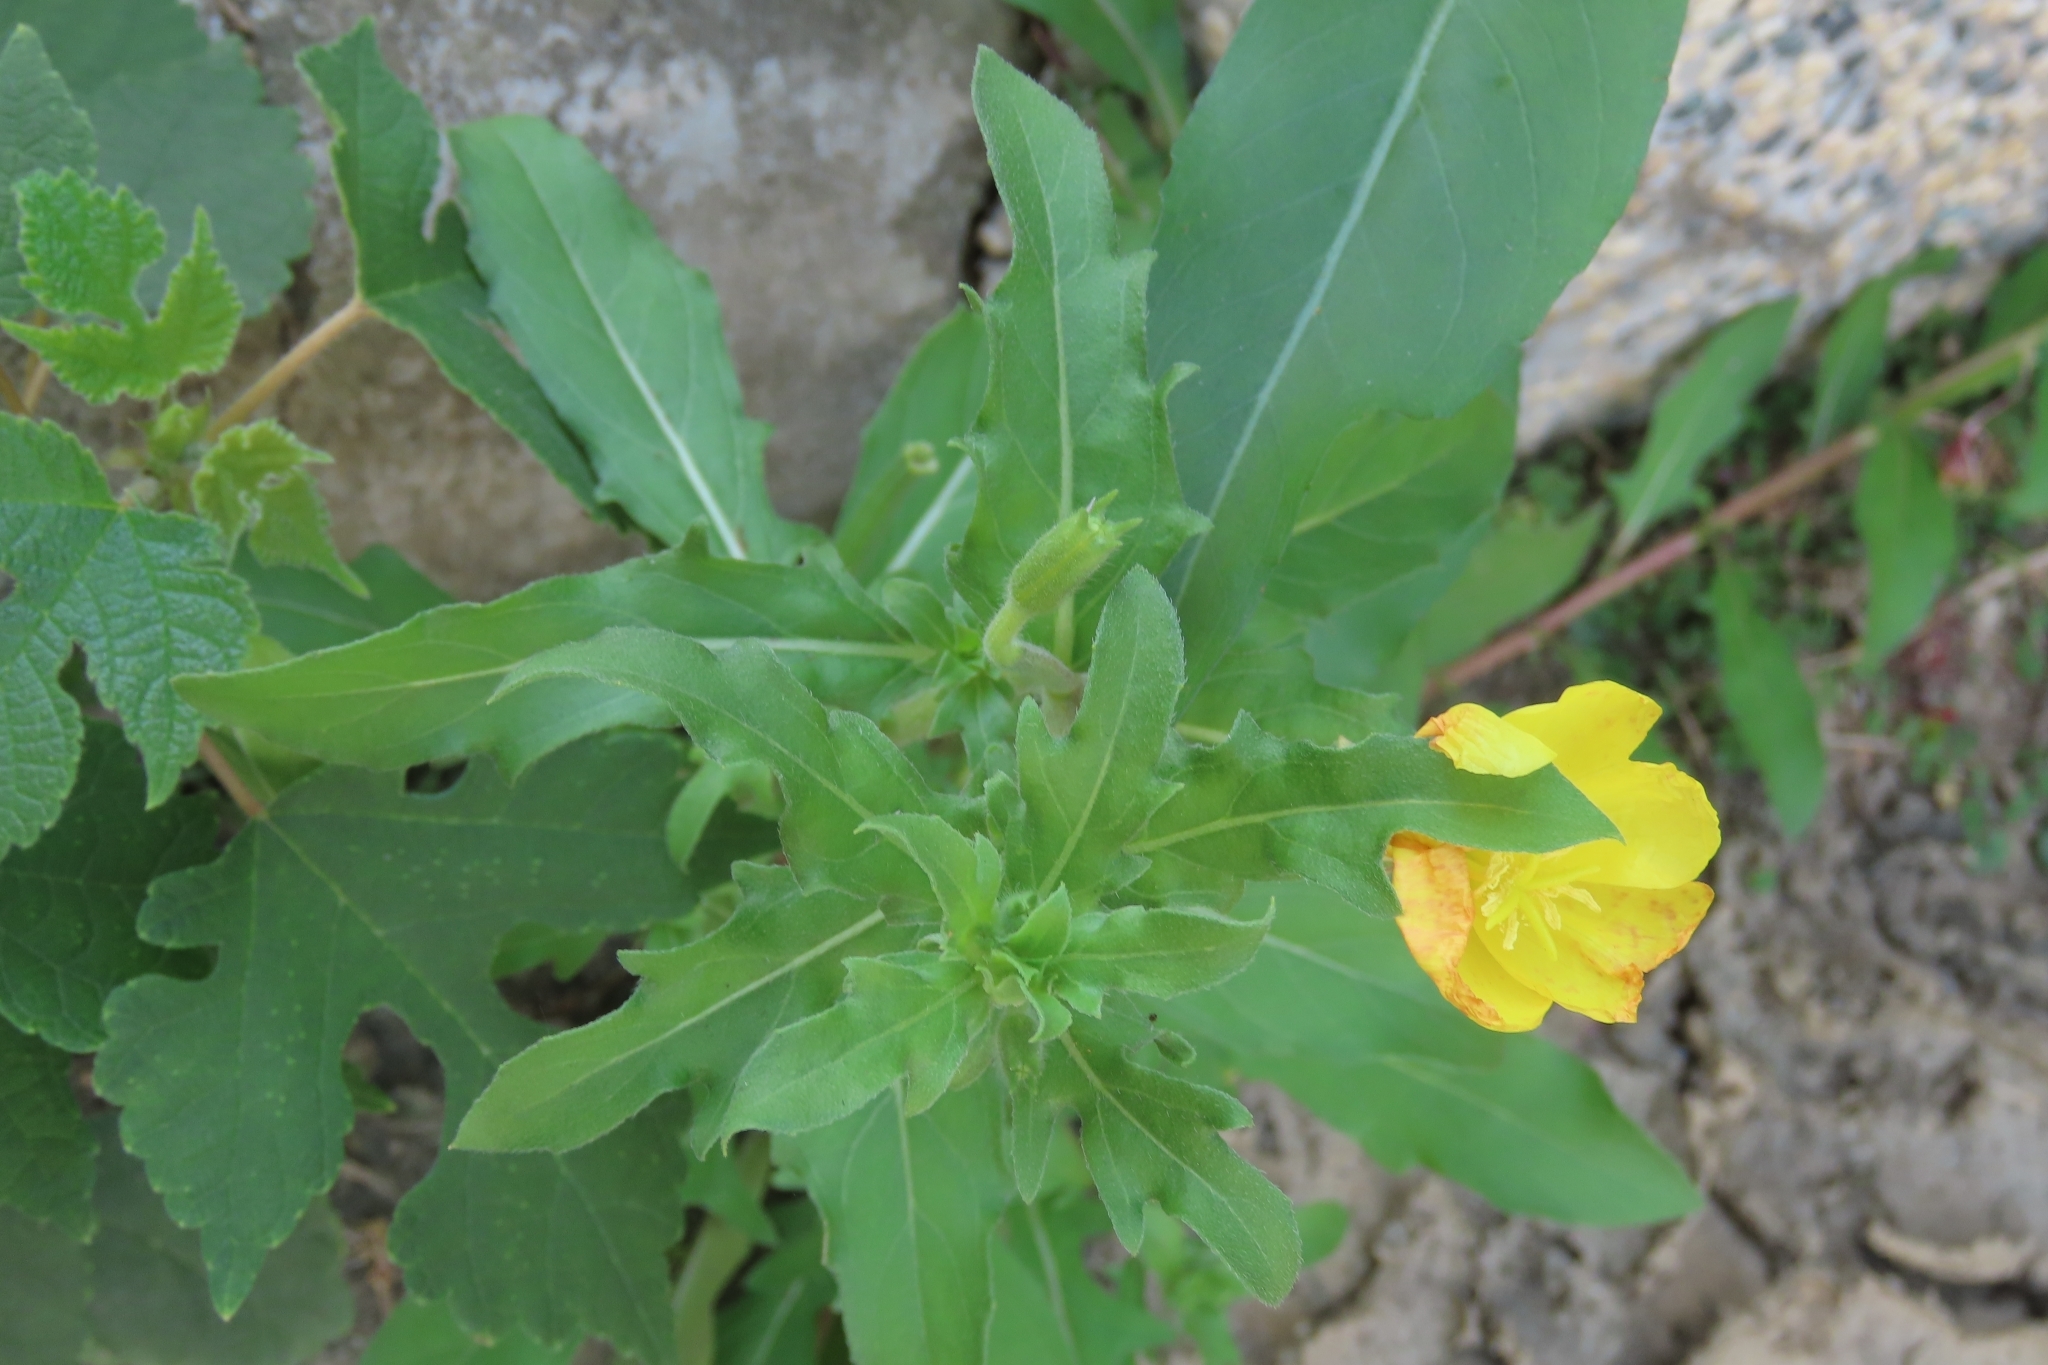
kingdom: Plantae
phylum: Tracheophyta
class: Magnoliopsida
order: Myrtales
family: Onagraceae
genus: Oenothera
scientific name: Oenothera laciniata
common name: Cut-leaved evening-primrose
